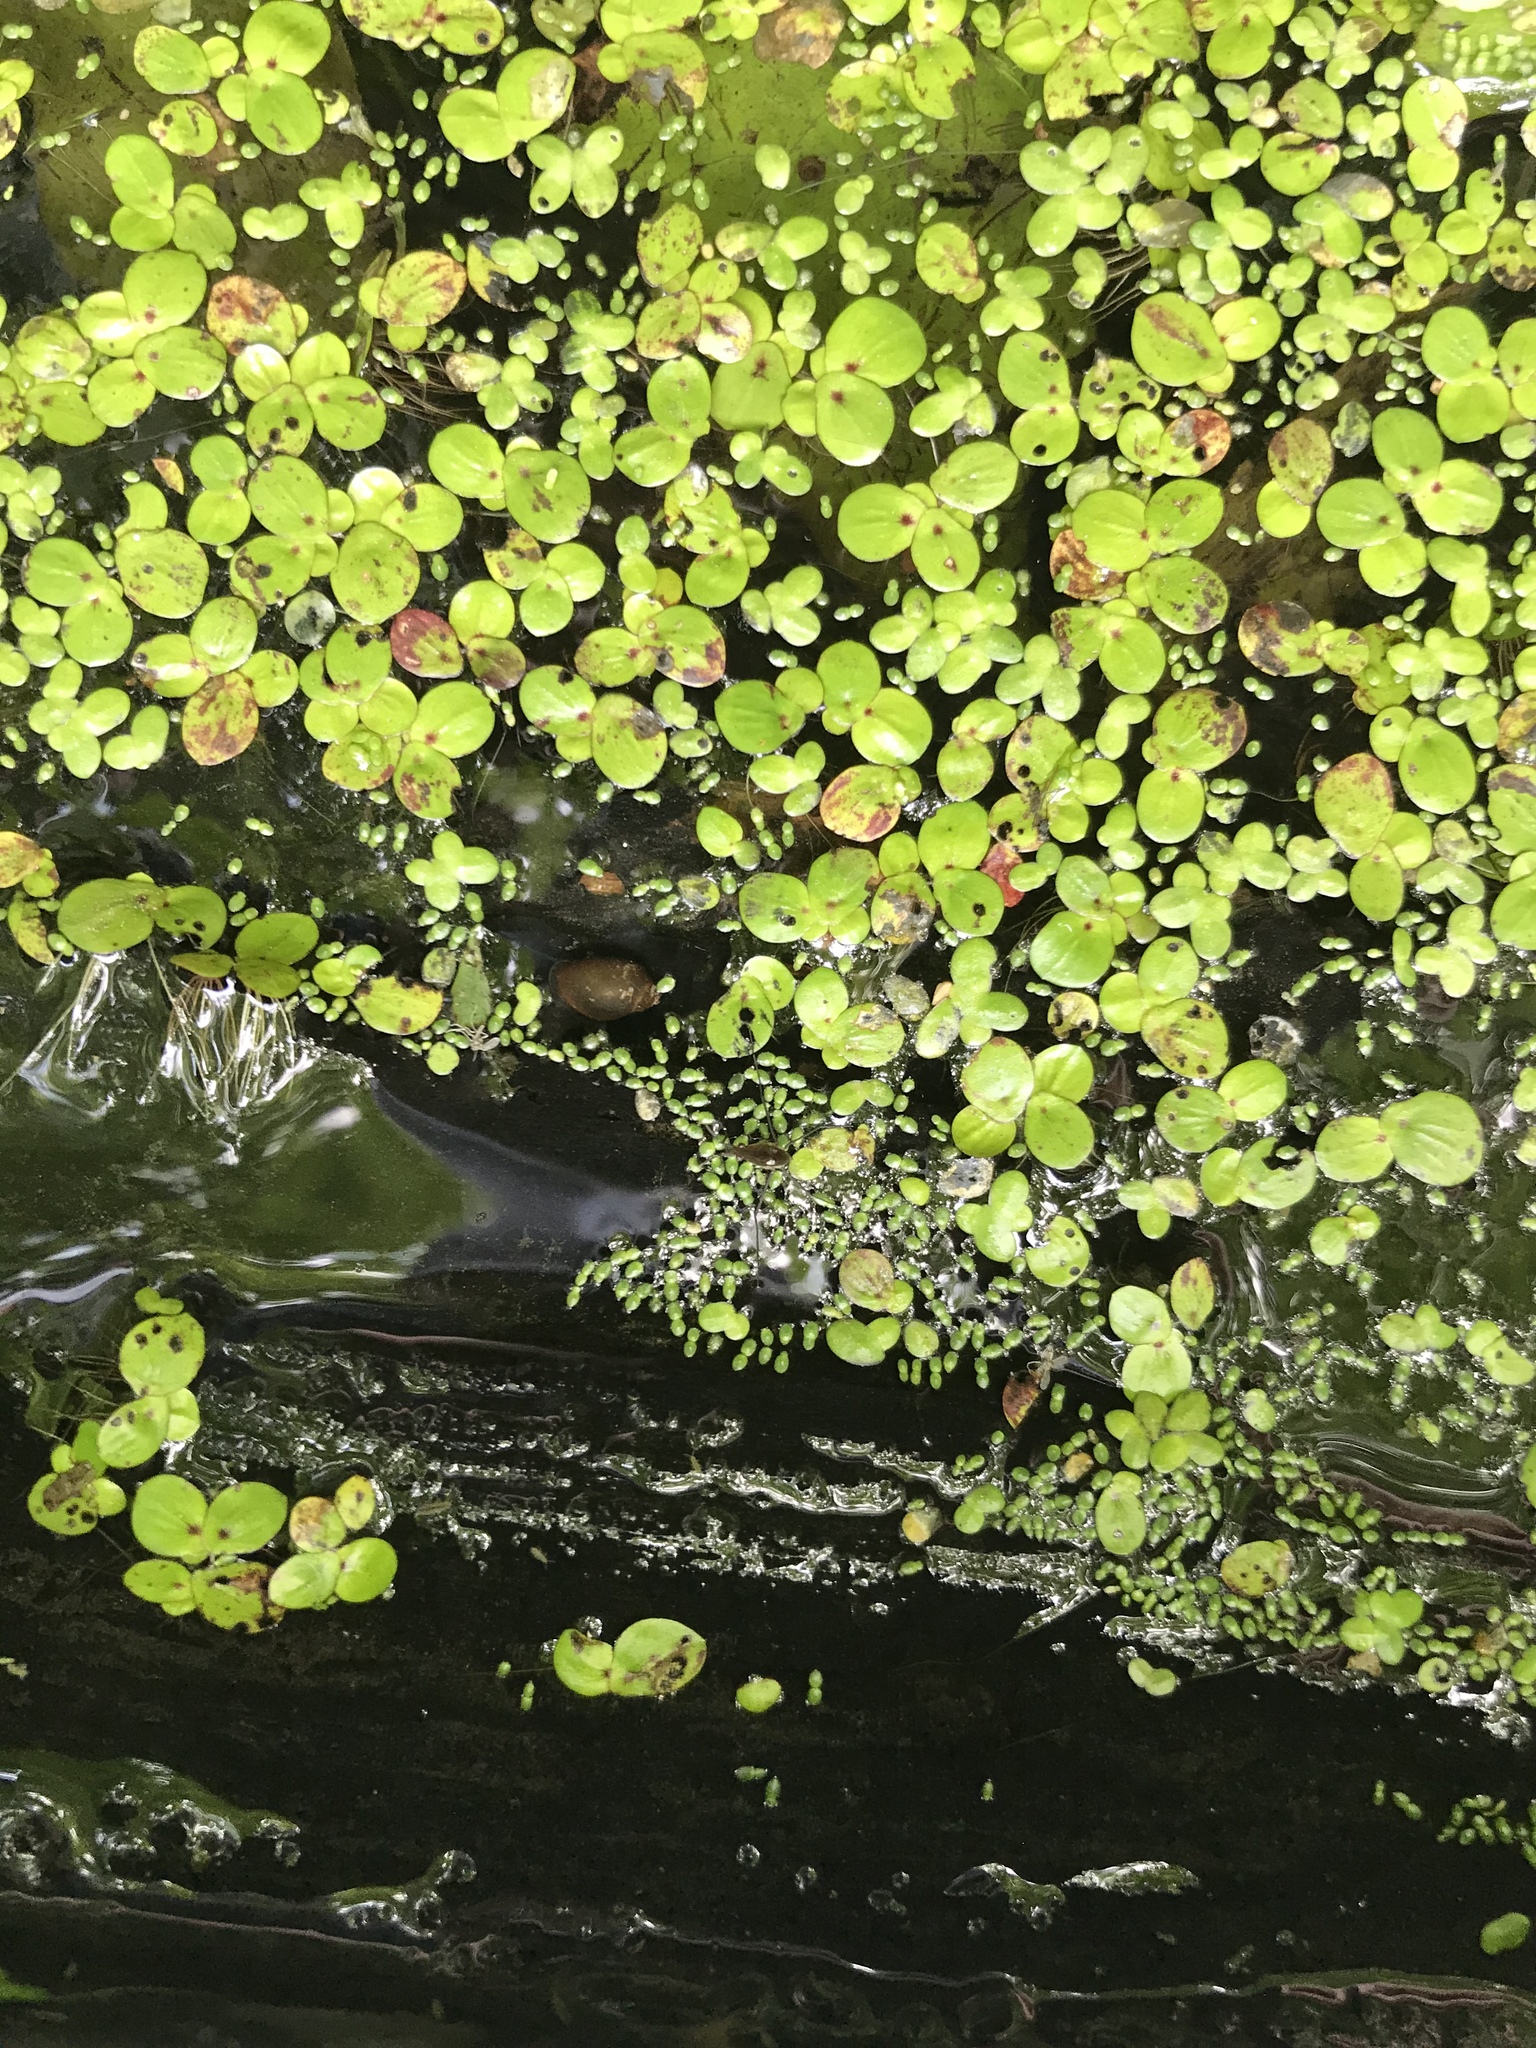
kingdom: Plantae
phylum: Tracheophyta
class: Liliopsida
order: Alismatales
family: Araceae
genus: Spirodela
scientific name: Spirodela polyrhiza
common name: Great duckweed
